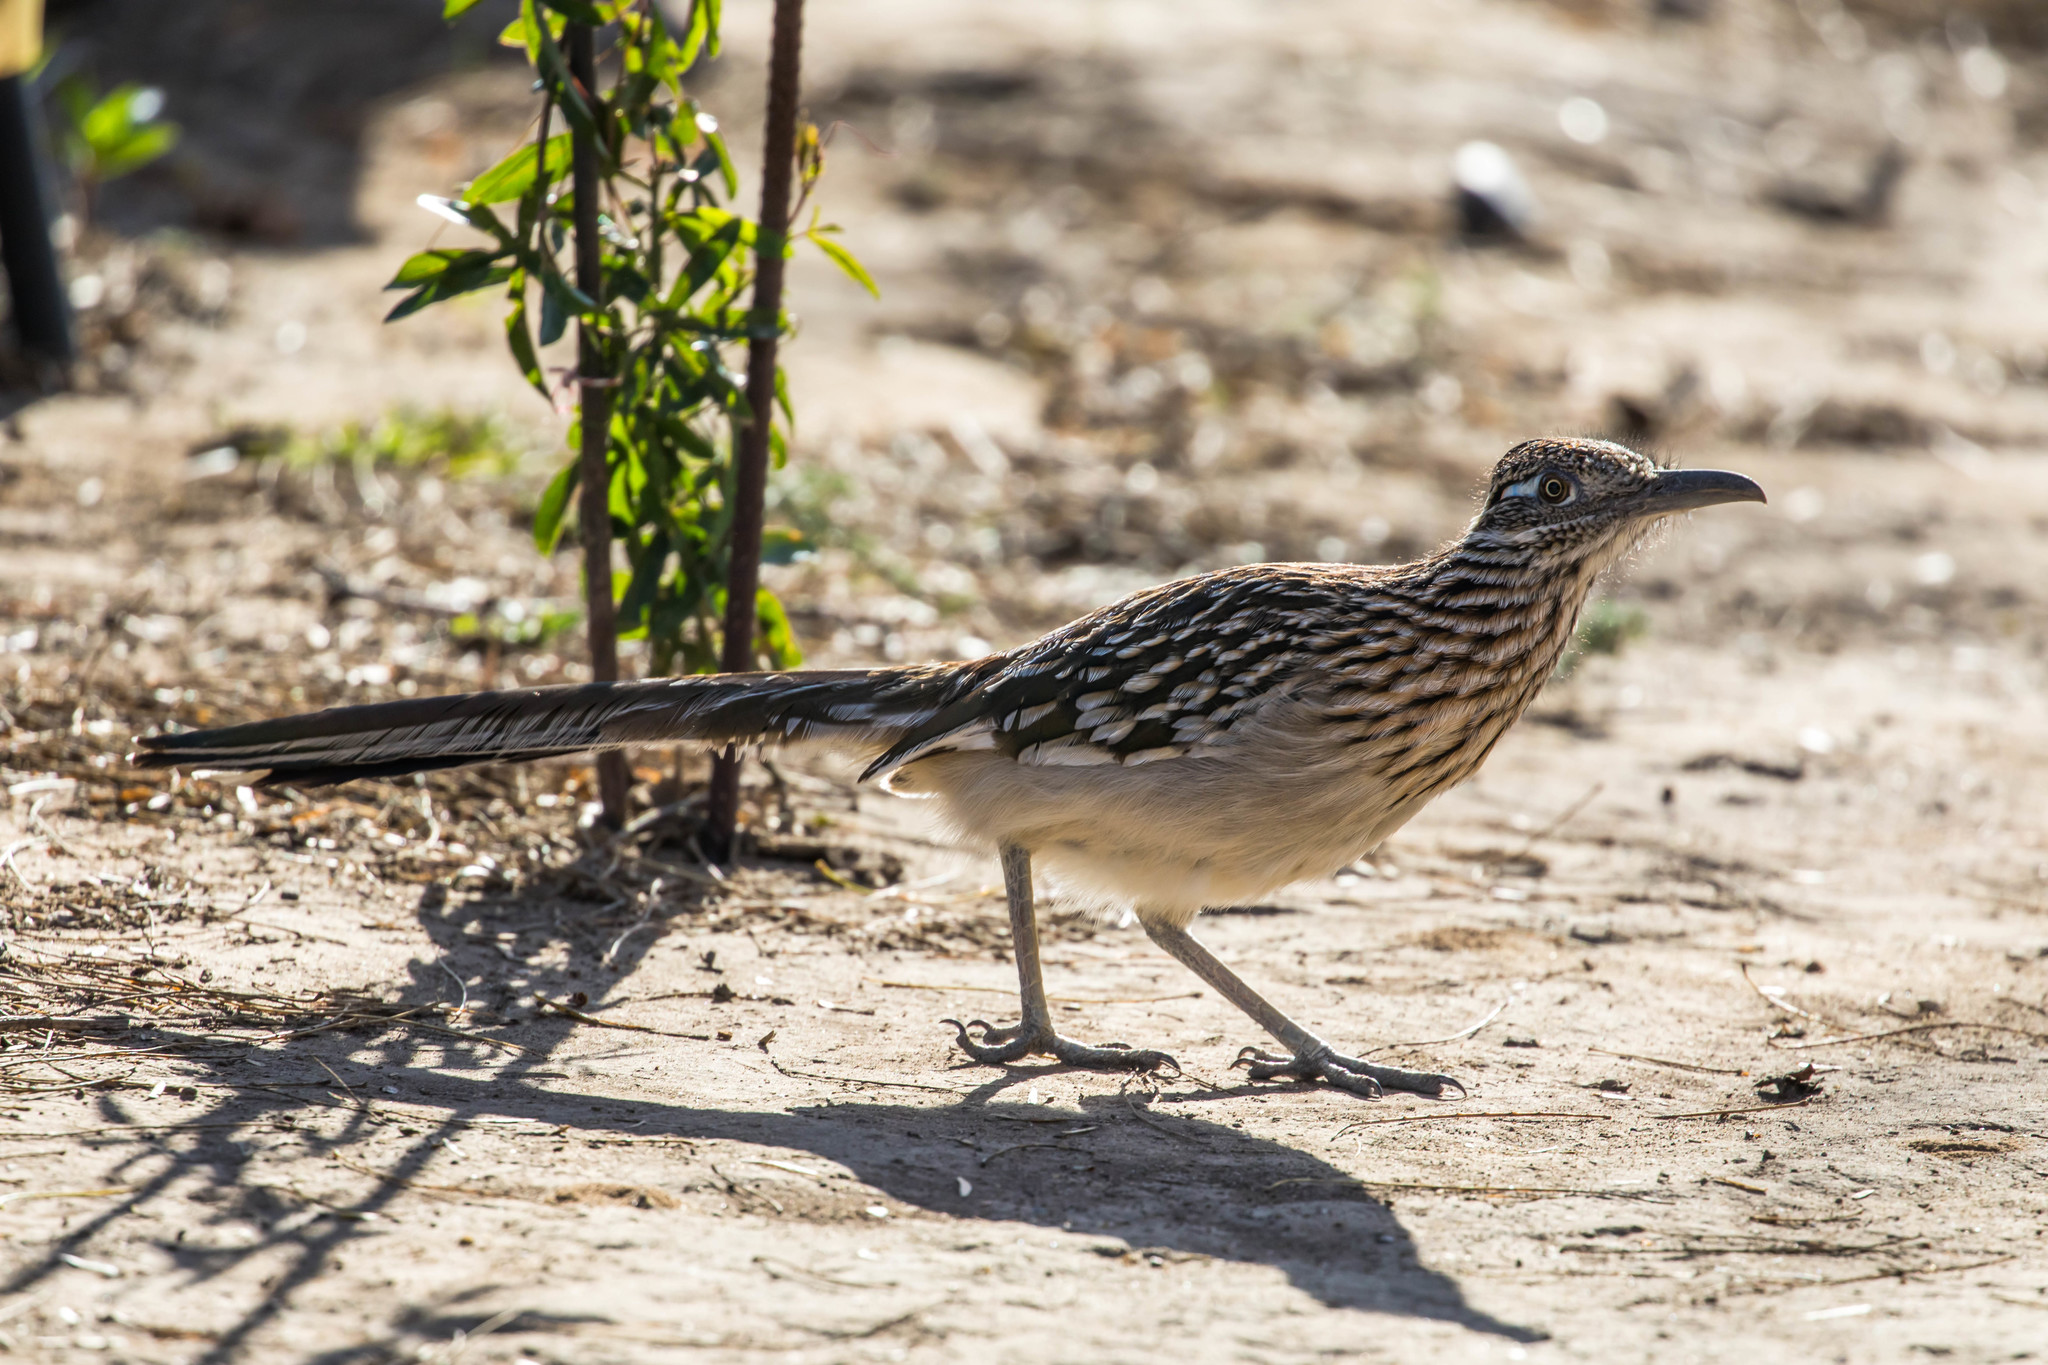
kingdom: Animalia
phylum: Chordata
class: Aves
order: Cuculiformes
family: Cuculidae
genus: Geococcyx
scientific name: Geococcyx californianus
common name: Greater roadrunner
